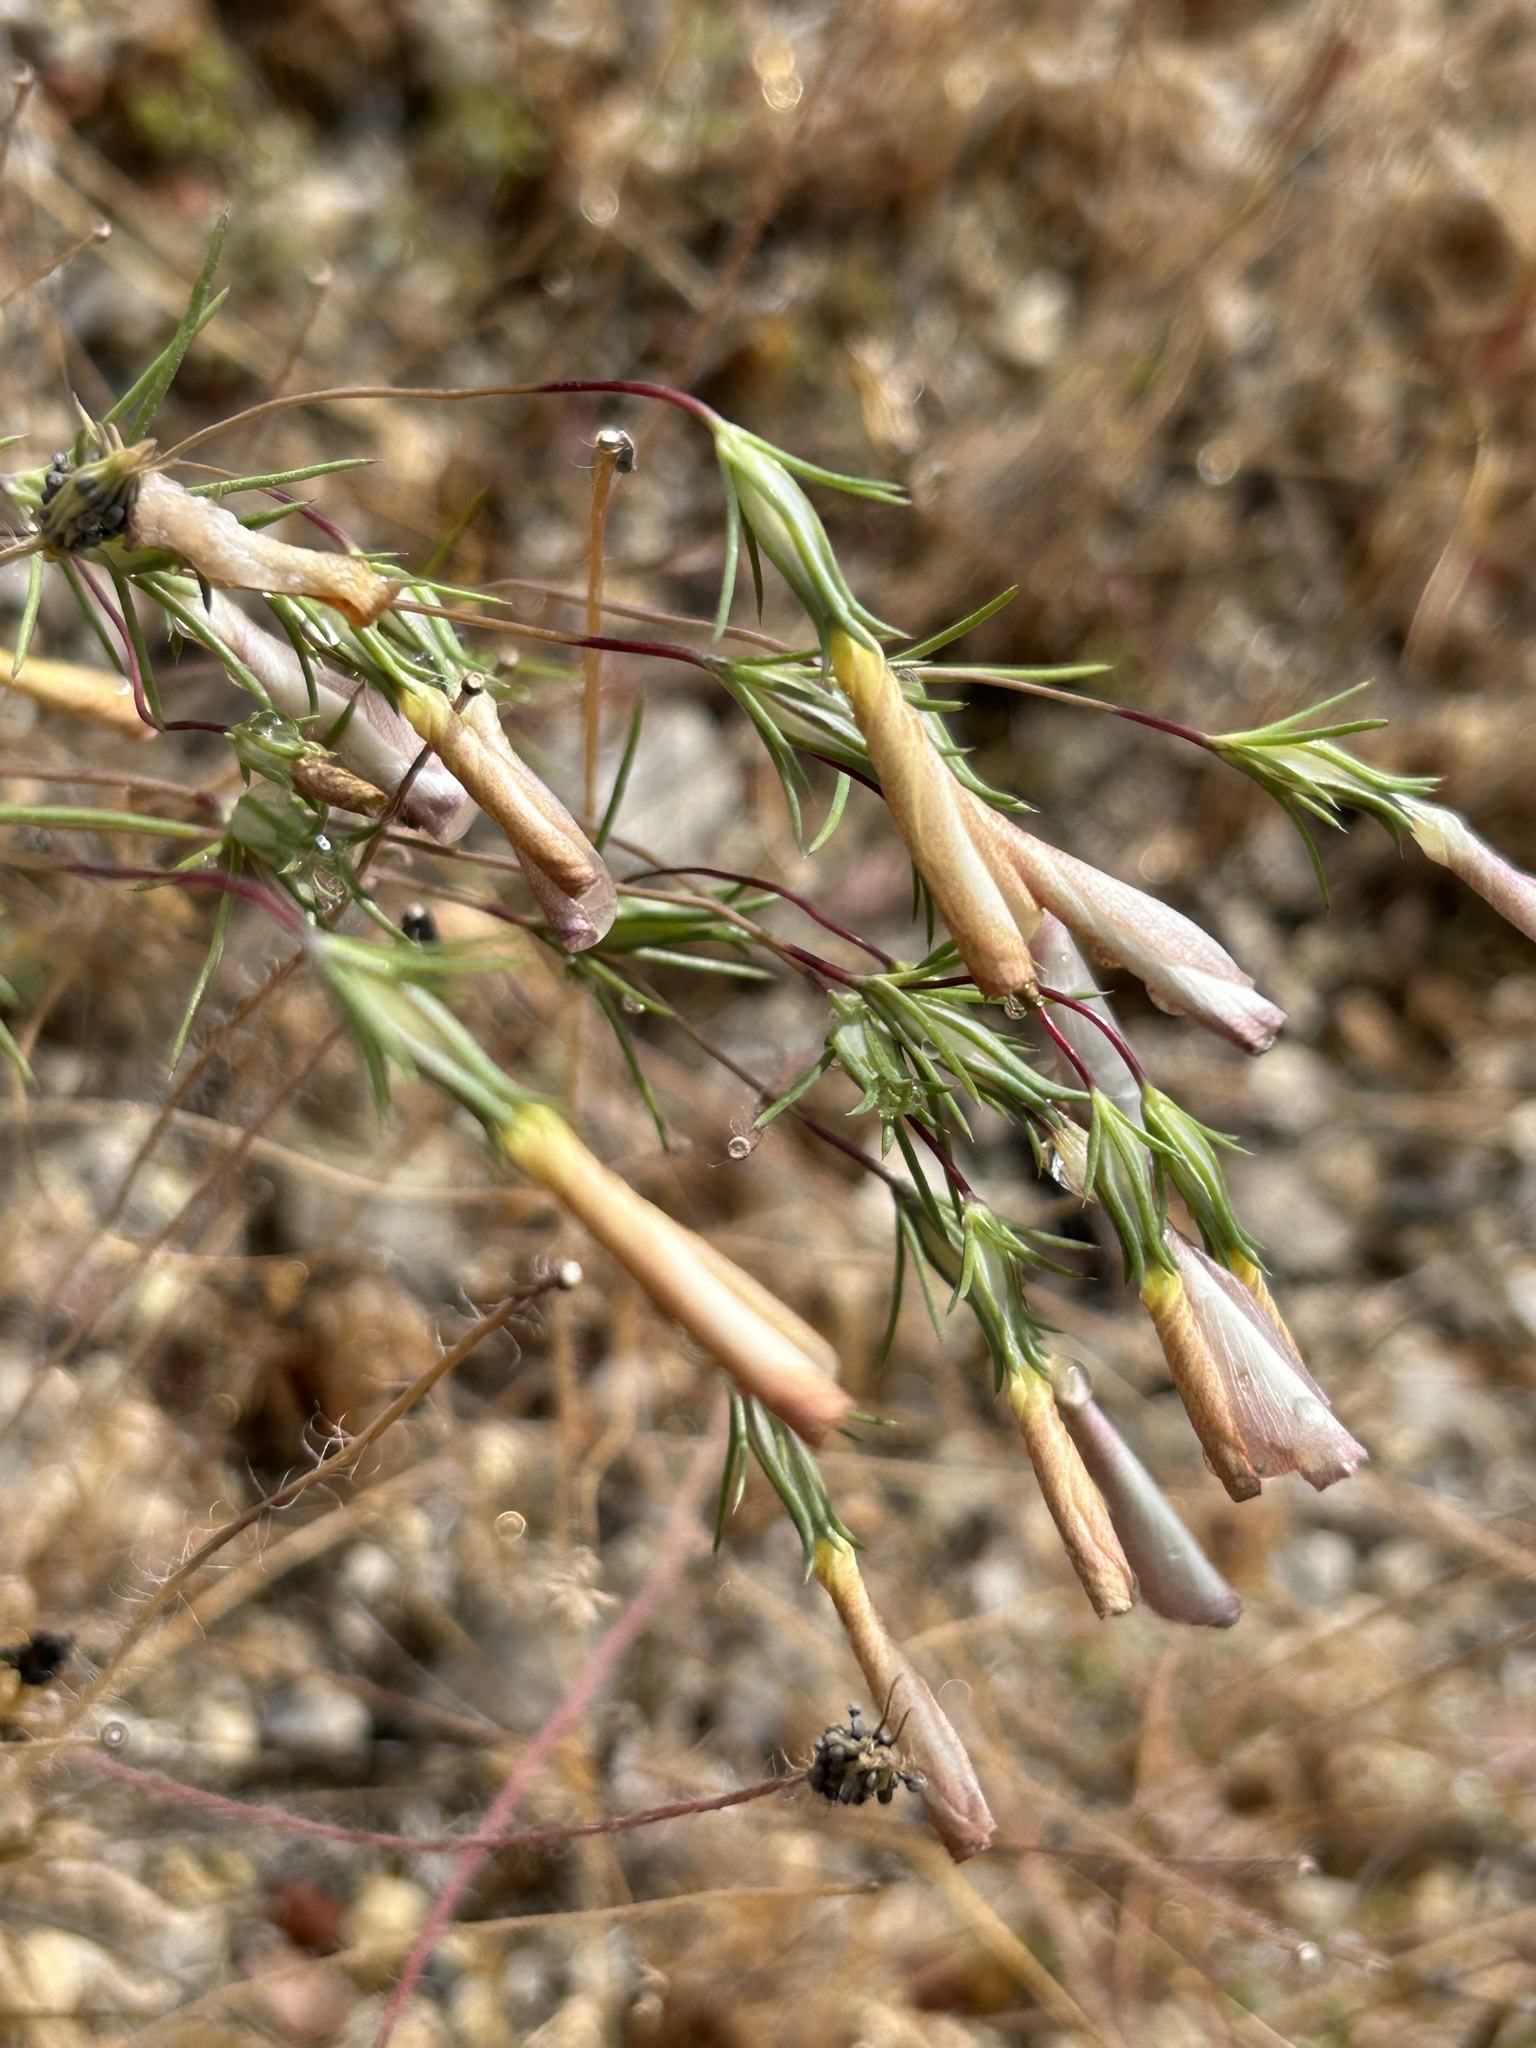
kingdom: Plantae
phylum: Tracheophyta
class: Magnoliopsida
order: Ericales
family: Polemoniaceae
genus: Linanthus
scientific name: Linanthus dichotomus
